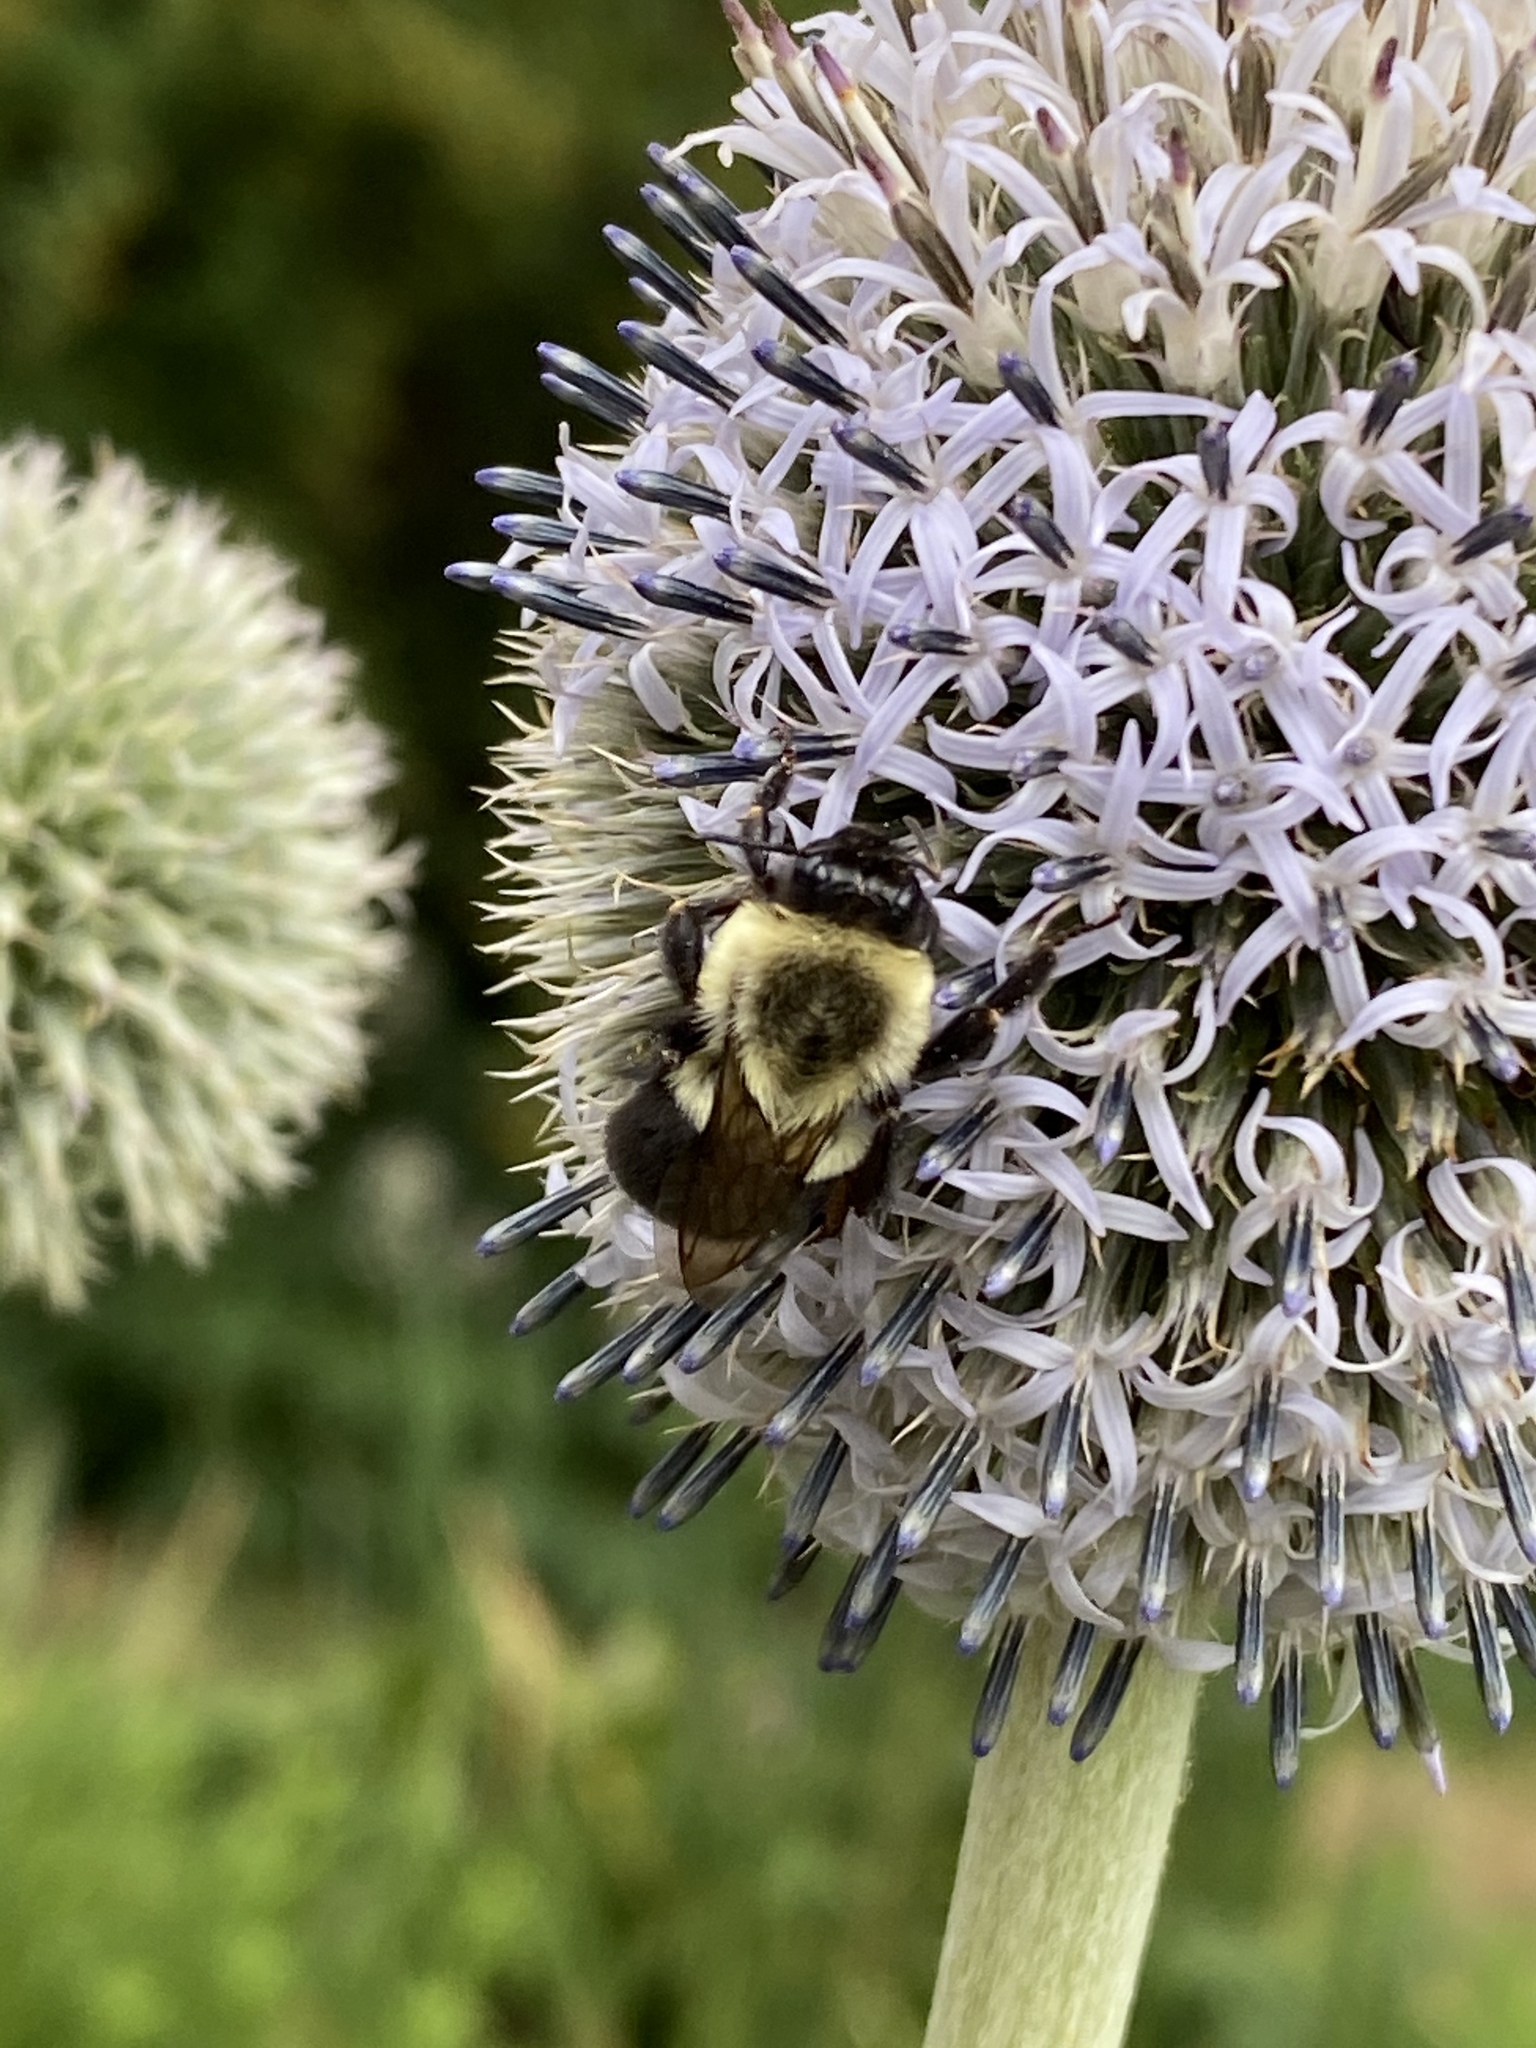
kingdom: Animalia
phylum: Arthropoda
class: Insecta
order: Hymenoptera
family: Apidae
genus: Bombus
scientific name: Bombus impatiens
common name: Common eastern bumble bee
